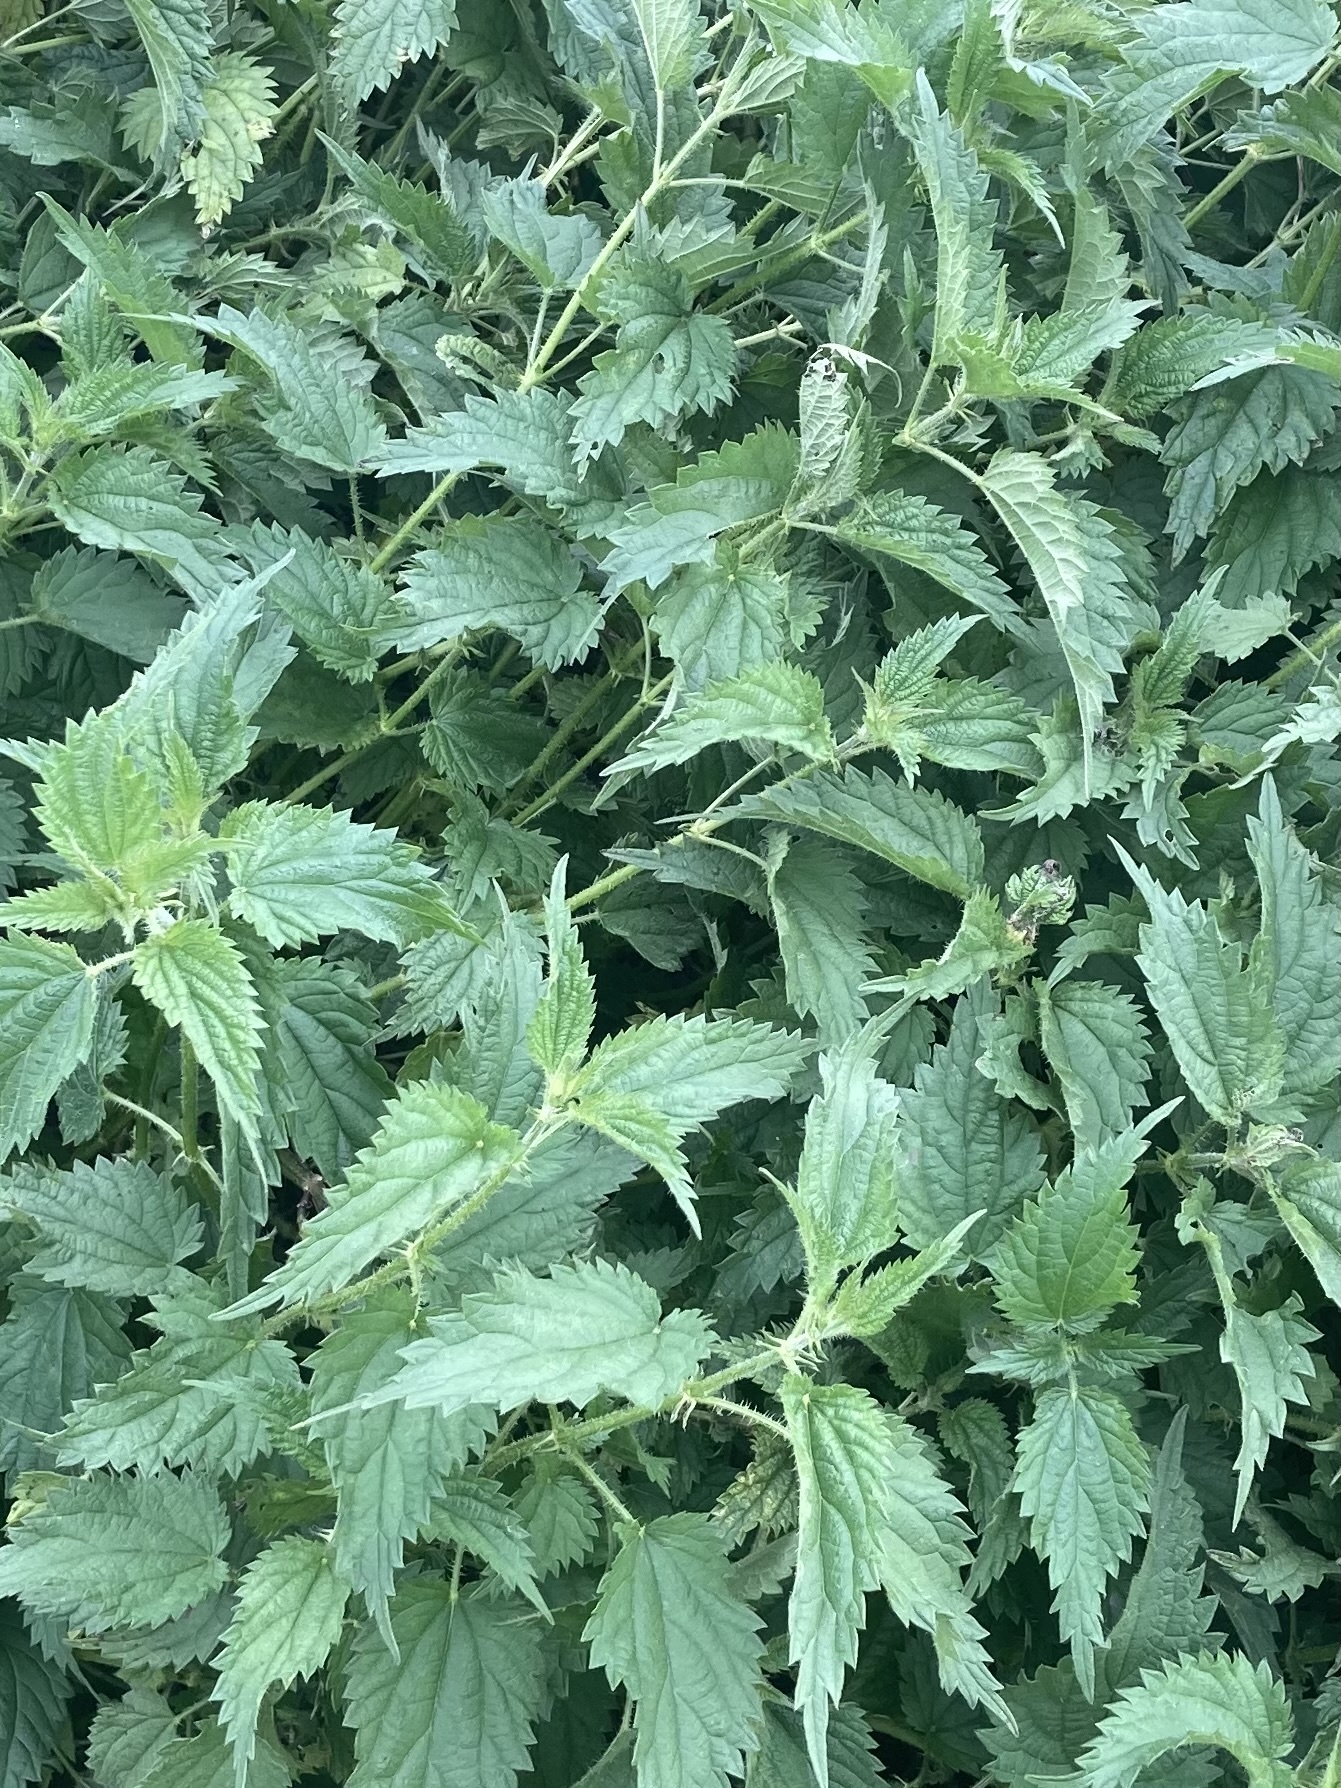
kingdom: Plantae
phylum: Tracheophyta
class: Magnoliopsida
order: Rosales
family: Urticaceae
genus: Urtica
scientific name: Urtica dioica
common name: Common nettle
